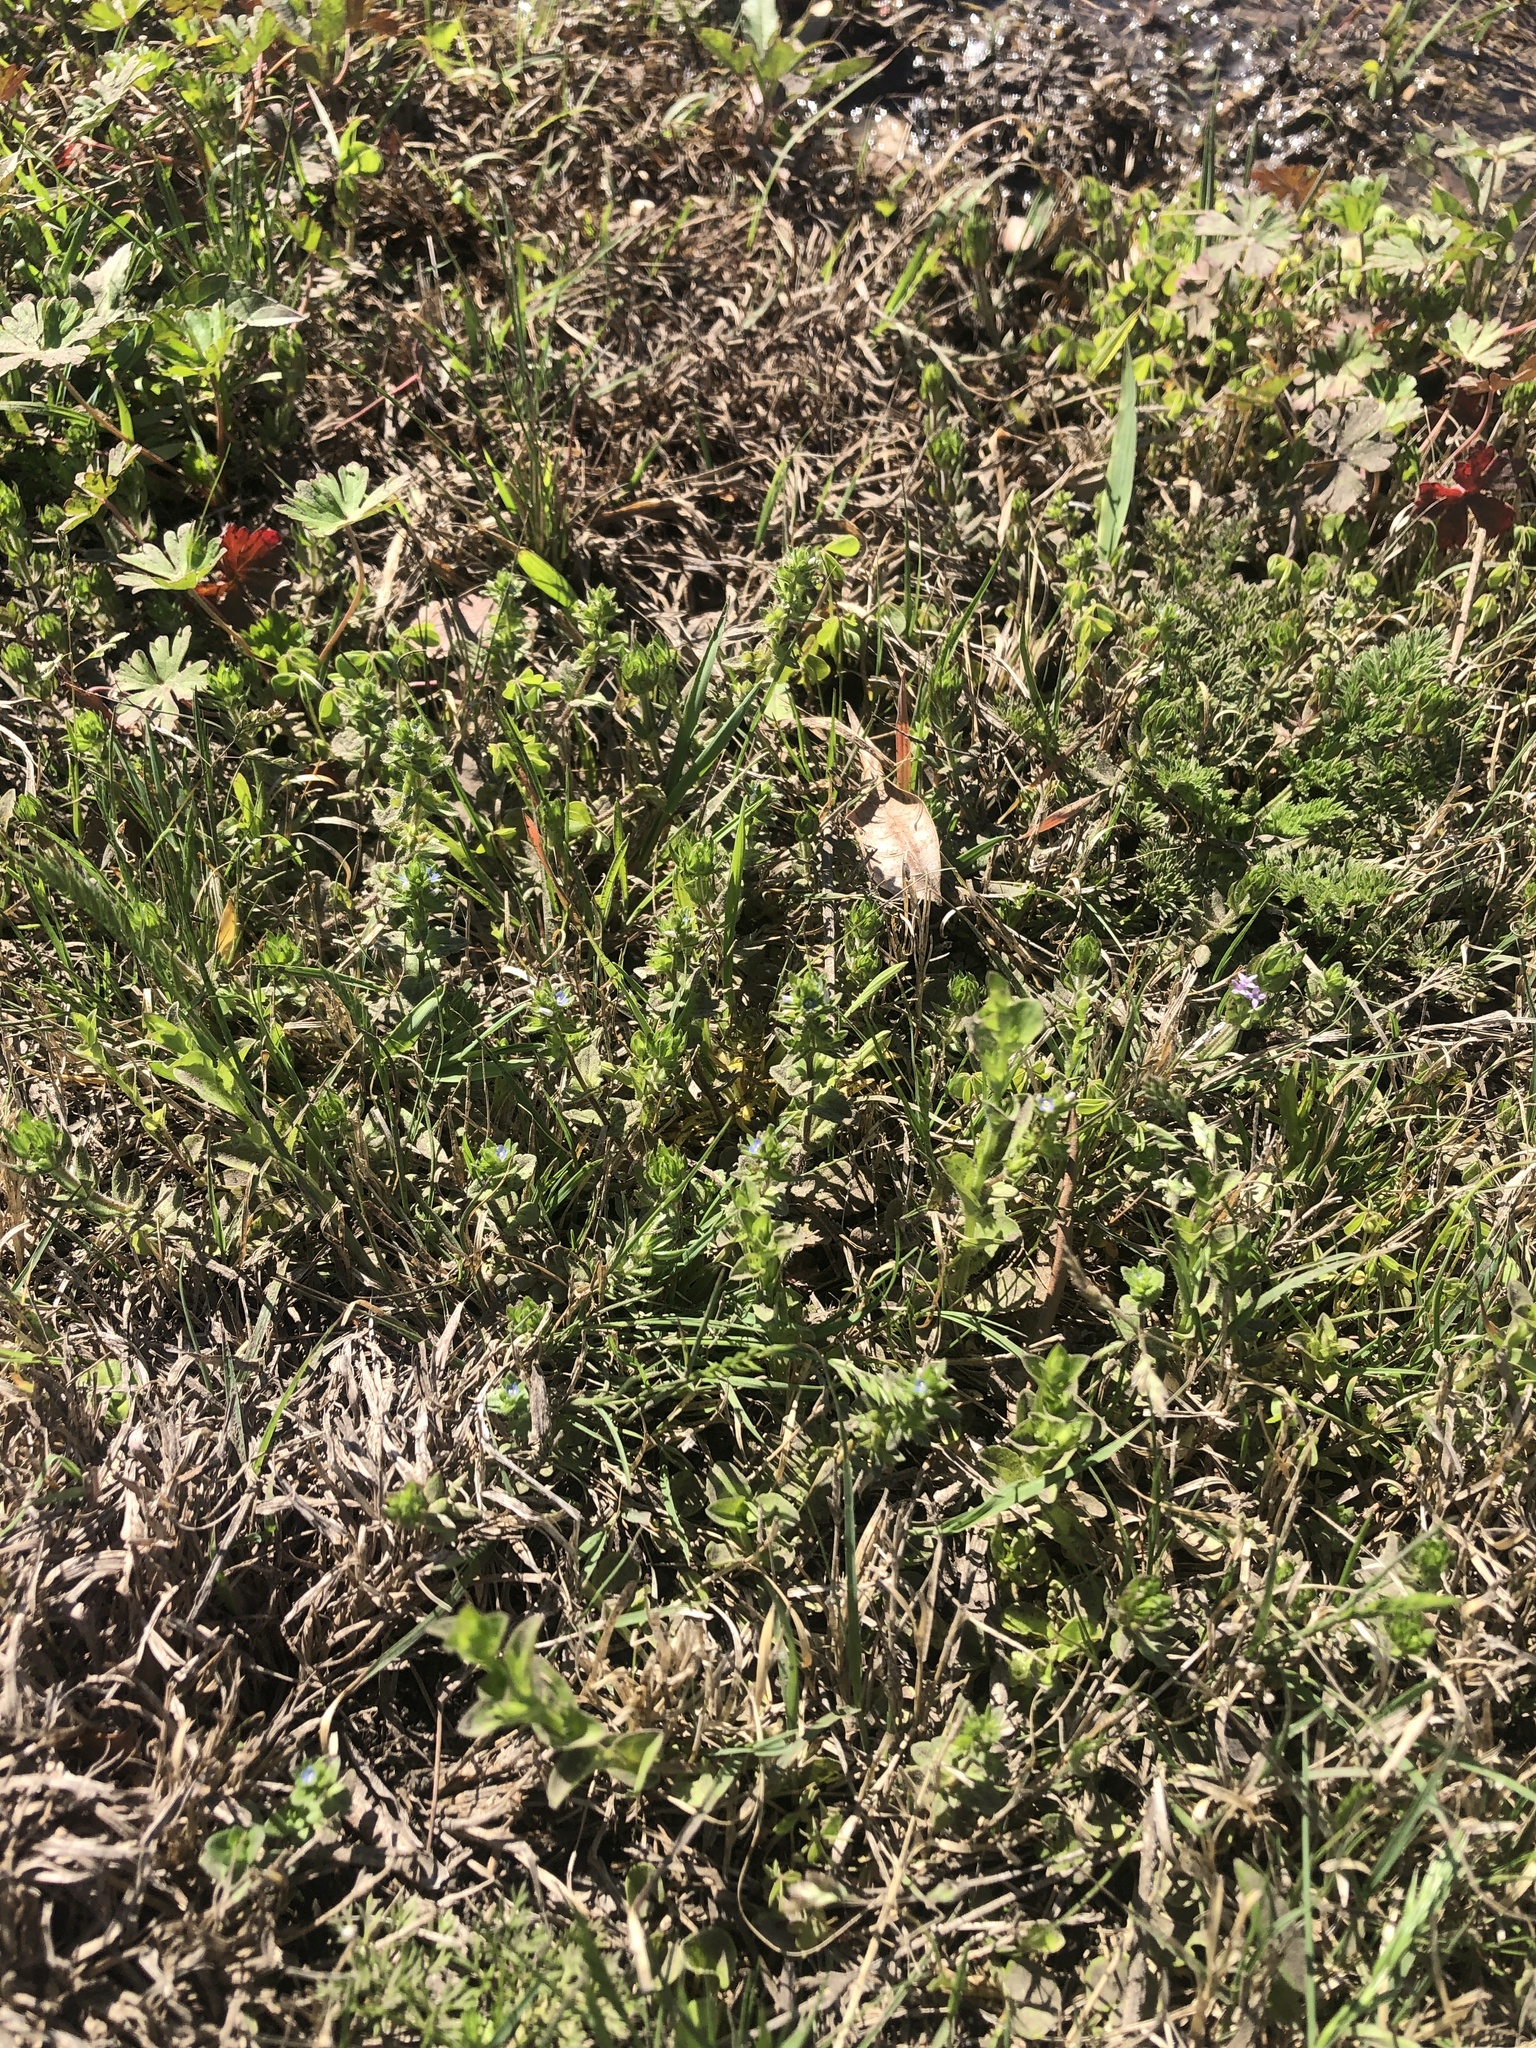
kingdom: Plantae
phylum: Tracheophyta
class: Magnoliopsida
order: Lamiales
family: Plantaginaceae
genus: Veronica
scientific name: Veronica arvensis
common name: Corn speedwell
